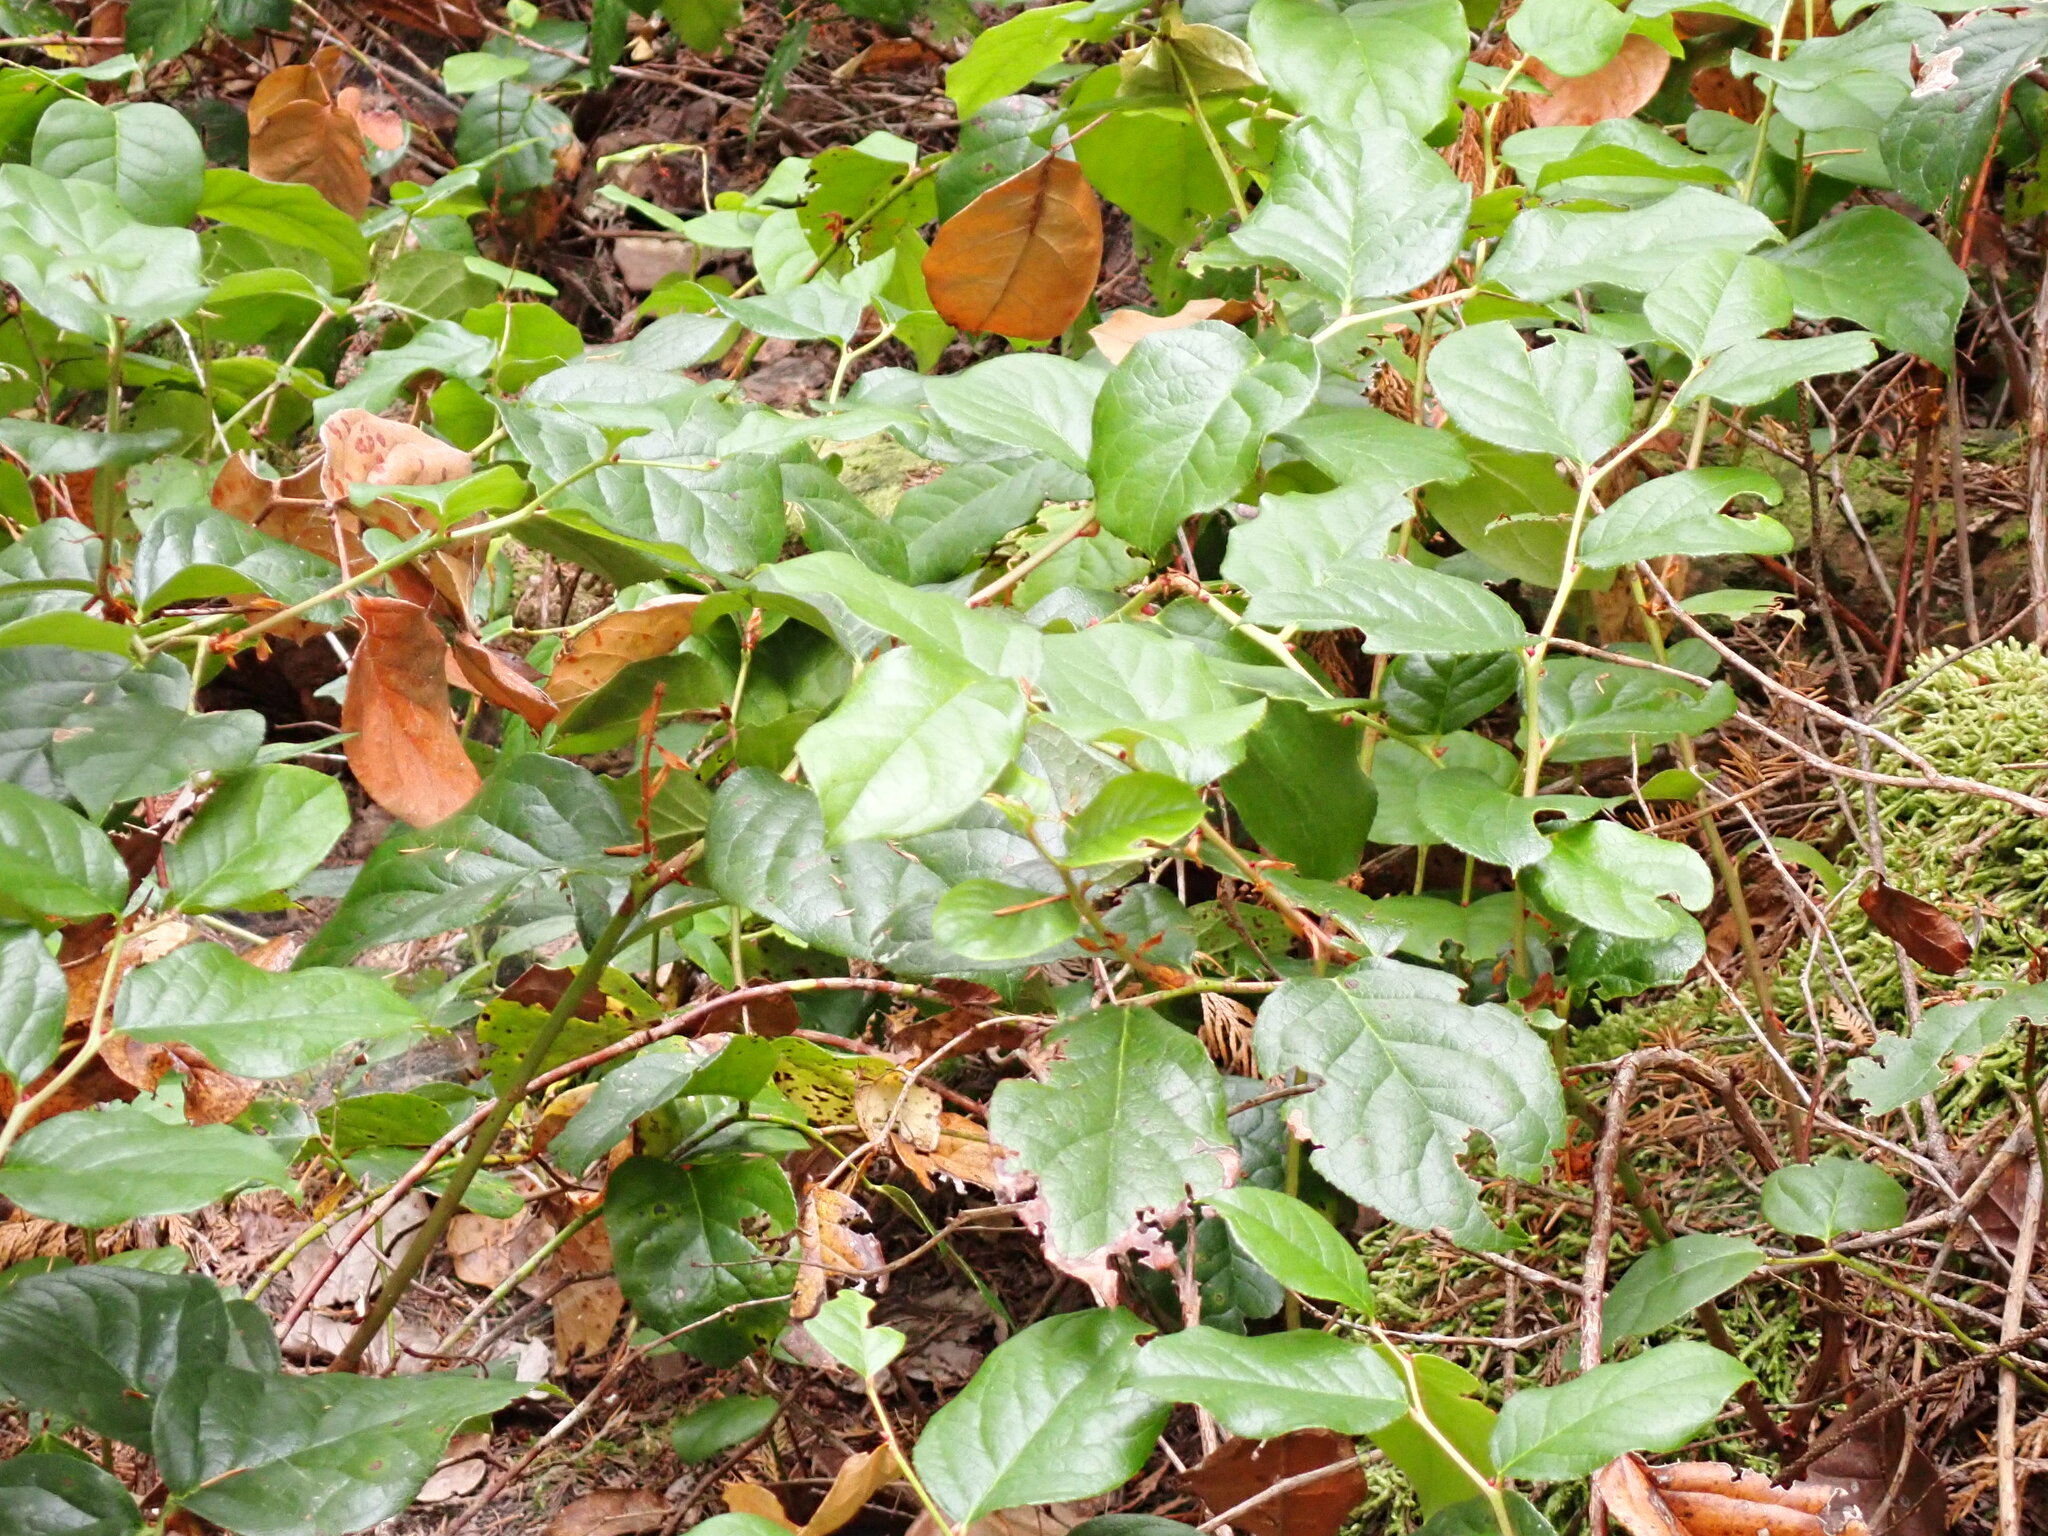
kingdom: Plantae
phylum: Tracheophyta
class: Magnoliopsida
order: Ericales
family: Ericaceae
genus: Gaultheria
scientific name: Gaultheria shallon
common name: Shallon
